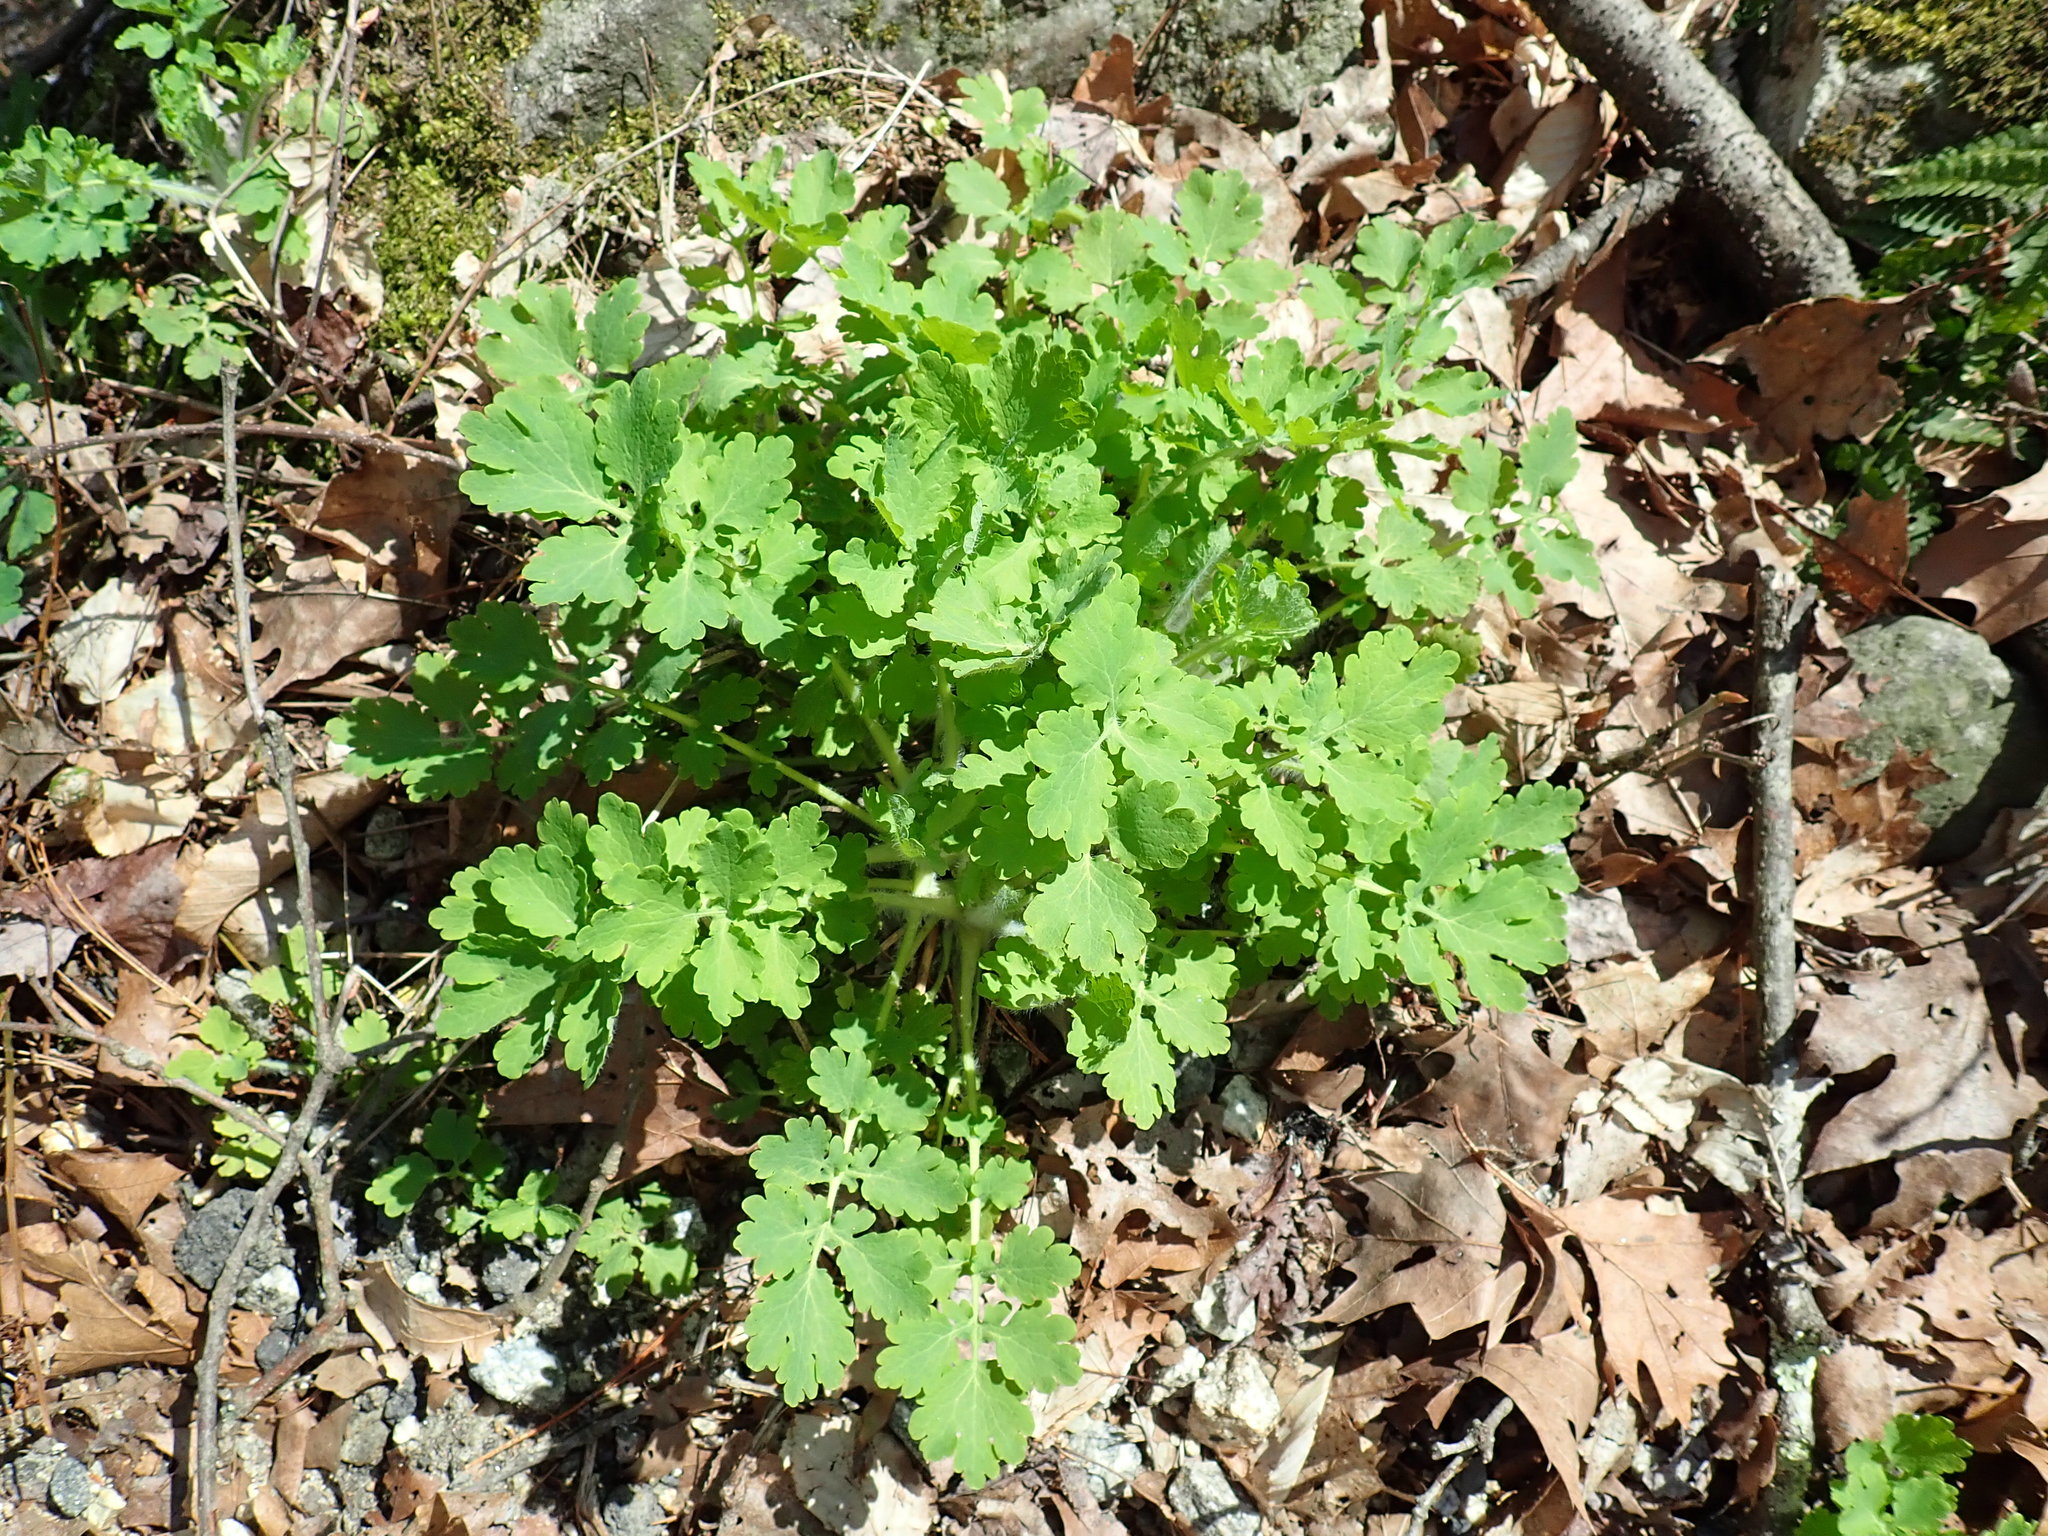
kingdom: Plantae
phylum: Tracheophyta
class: Magnoliopsida
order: Ranunculales
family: Papaveraceae
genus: Chelidonium
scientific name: Chelidonium majus
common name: Greater celandine
